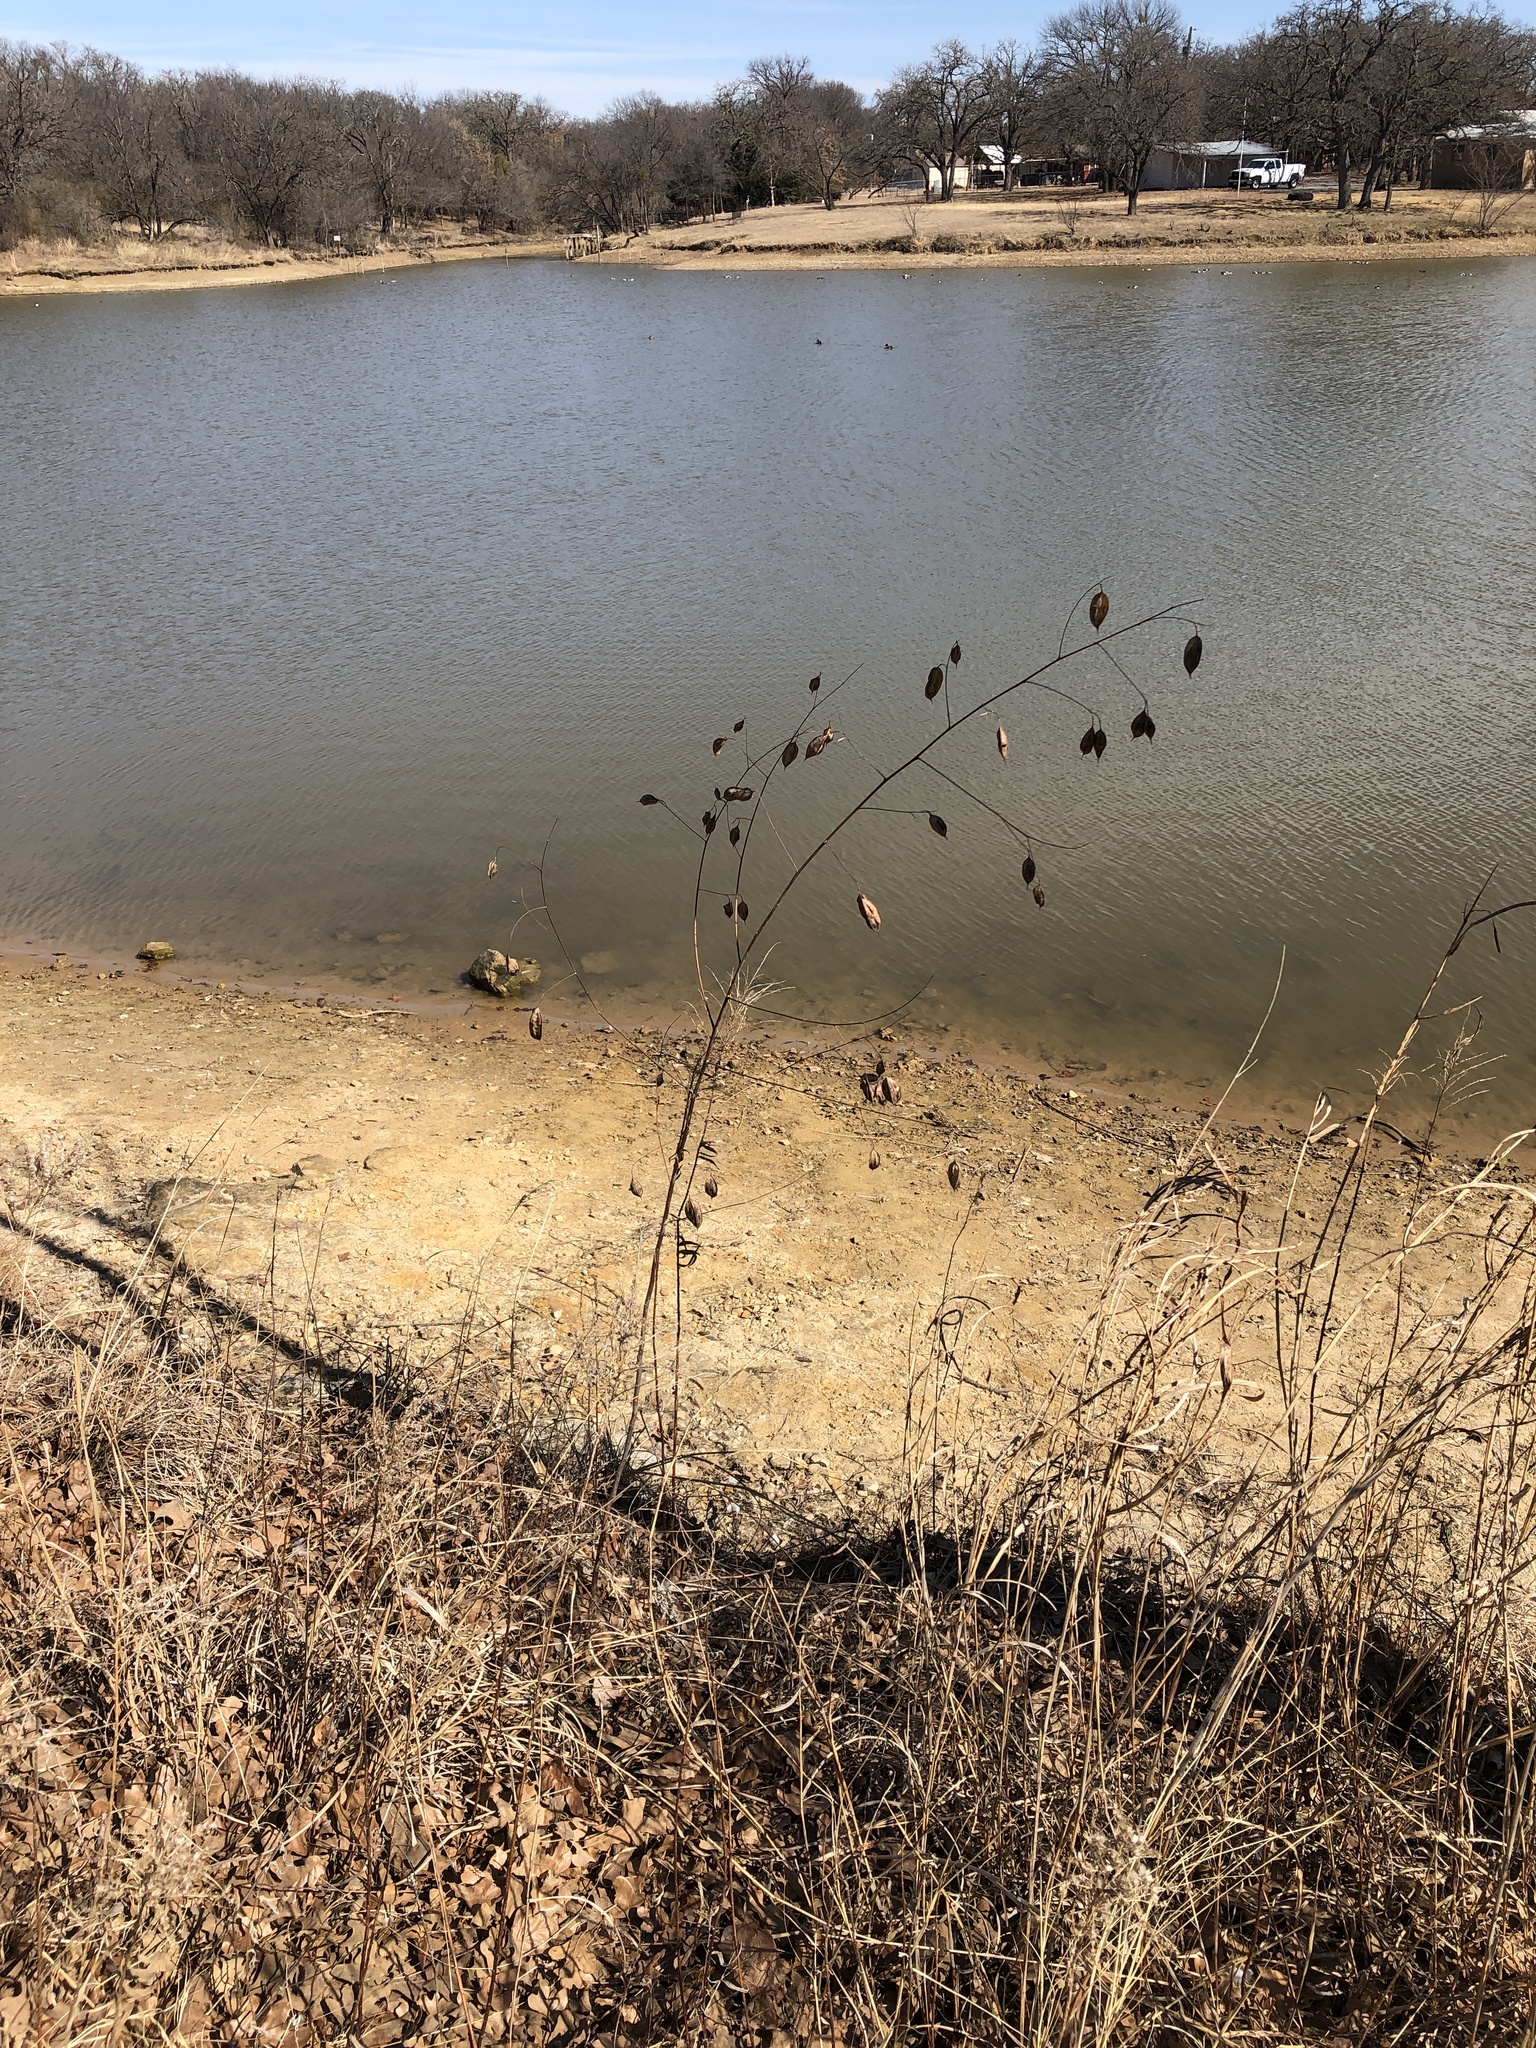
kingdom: Plantae
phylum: Tracheophyta
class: Magnoliopsida
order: Fabales
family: Fabaceae
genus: Sesbania
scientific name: Sesbania vesicaria
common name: Bagpod
